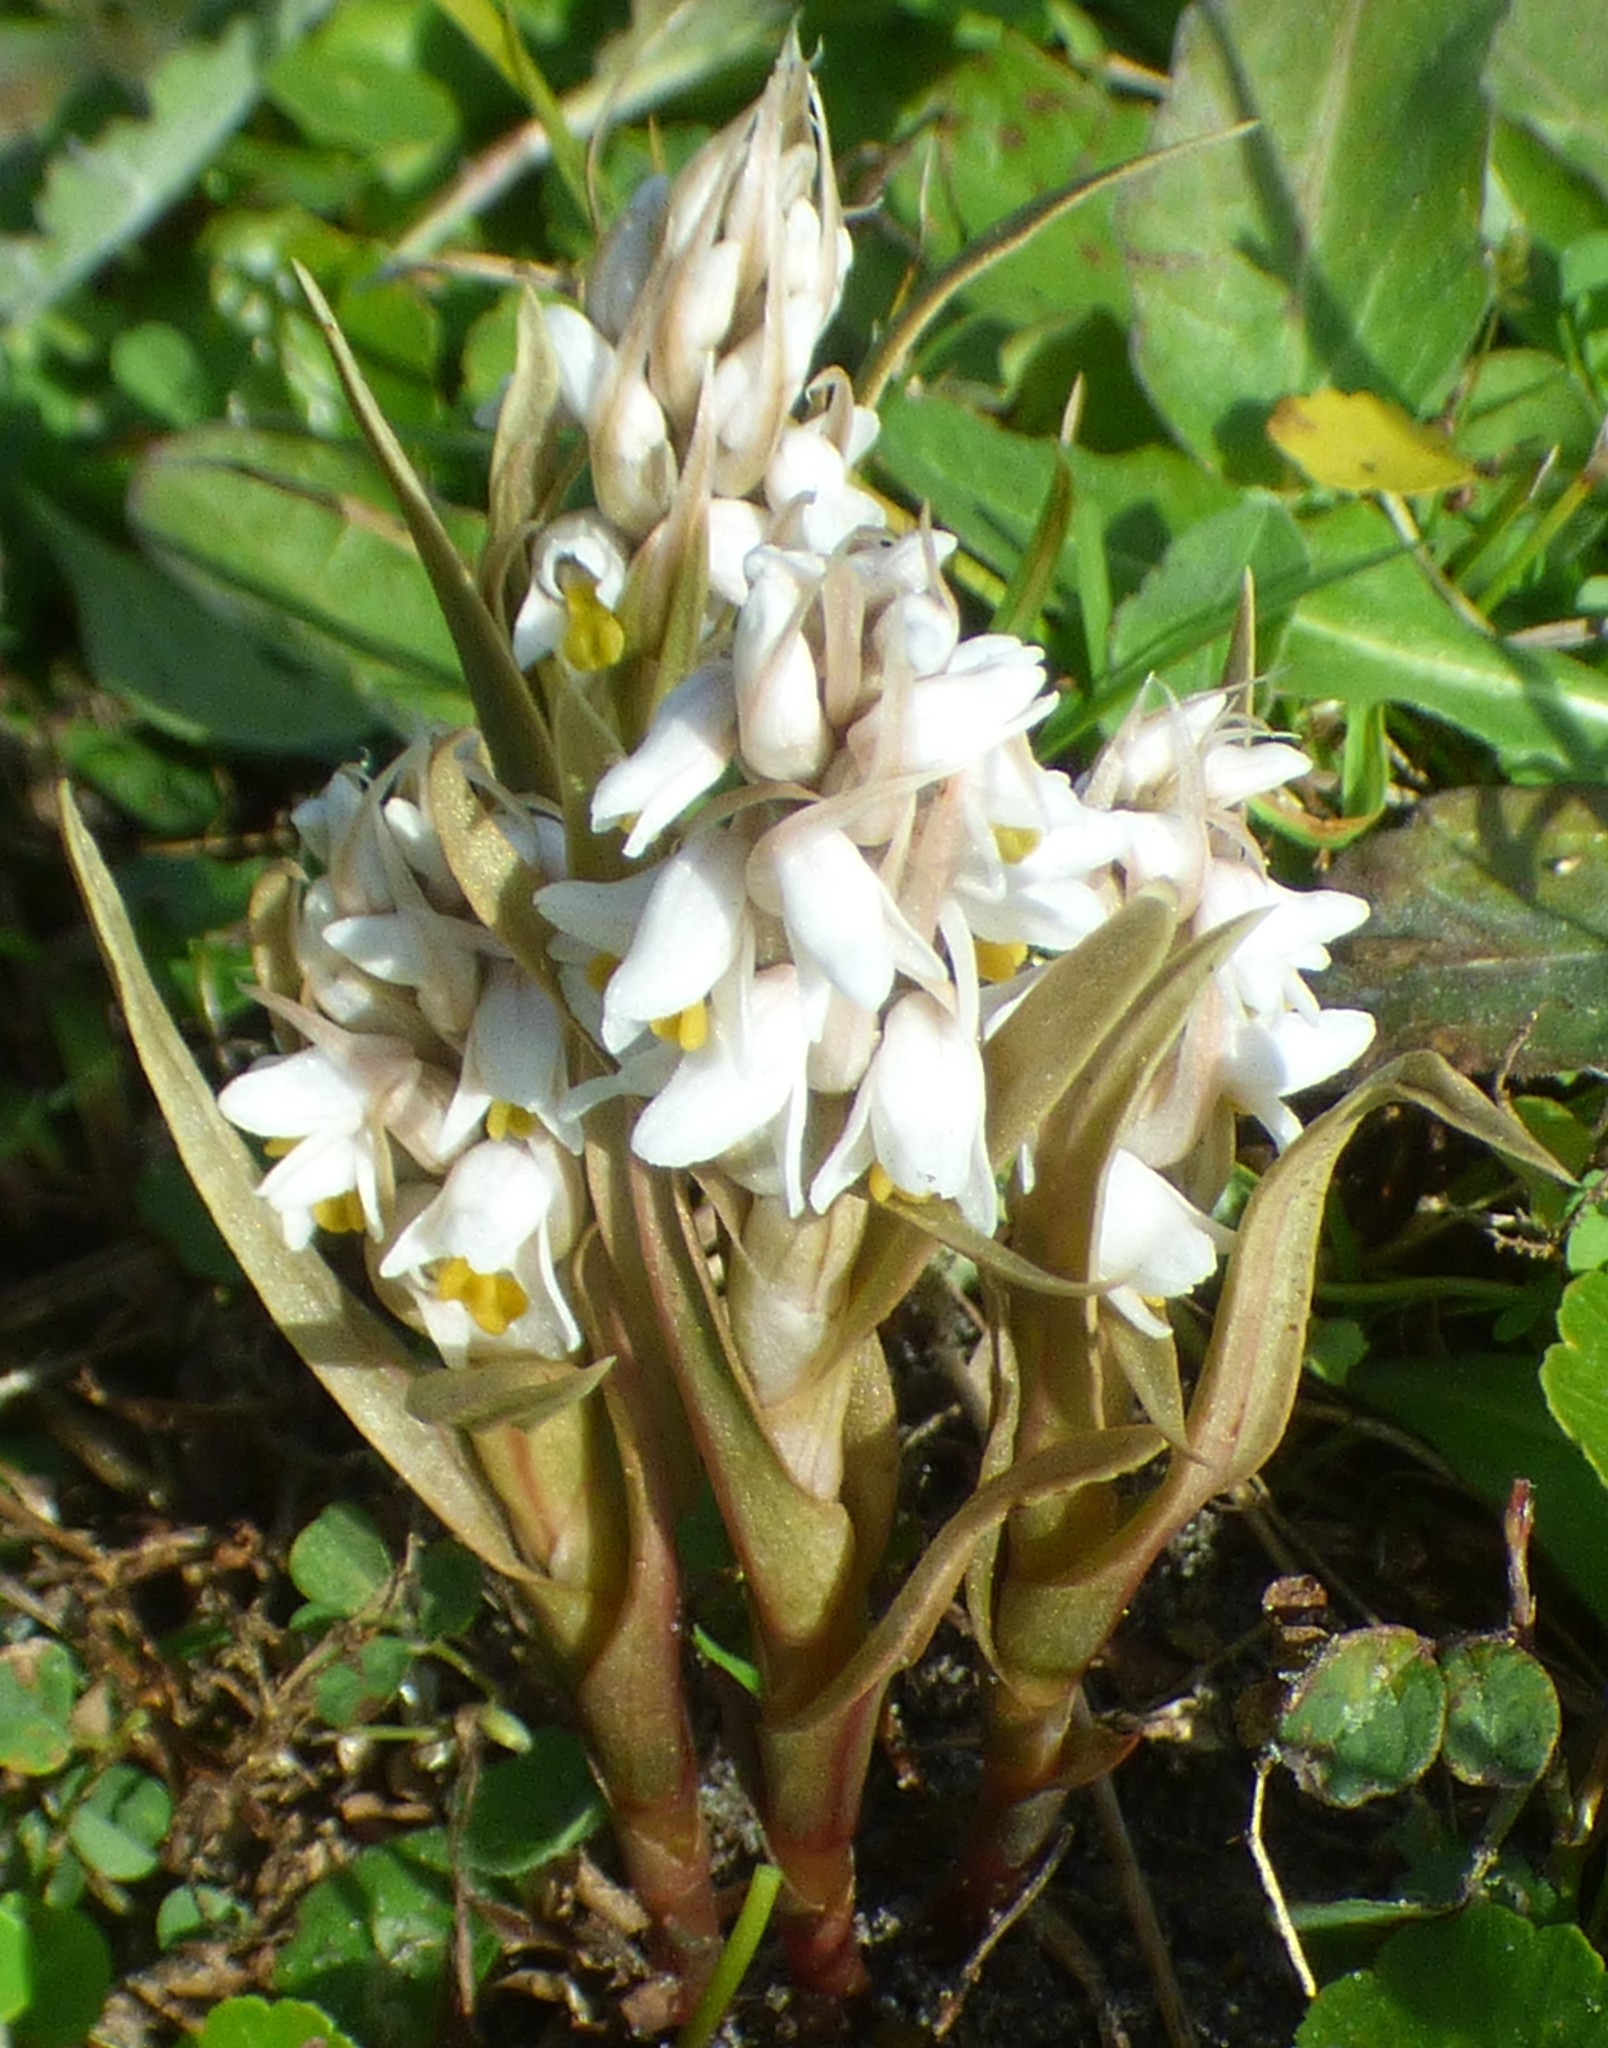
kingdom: Plantae
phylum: Tracheophyta
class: Liliopsida
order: Asparagales
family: Orchidaceae
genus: Zeuxine
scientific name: Zeuxine strateumatica
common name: Soldier's orchid
